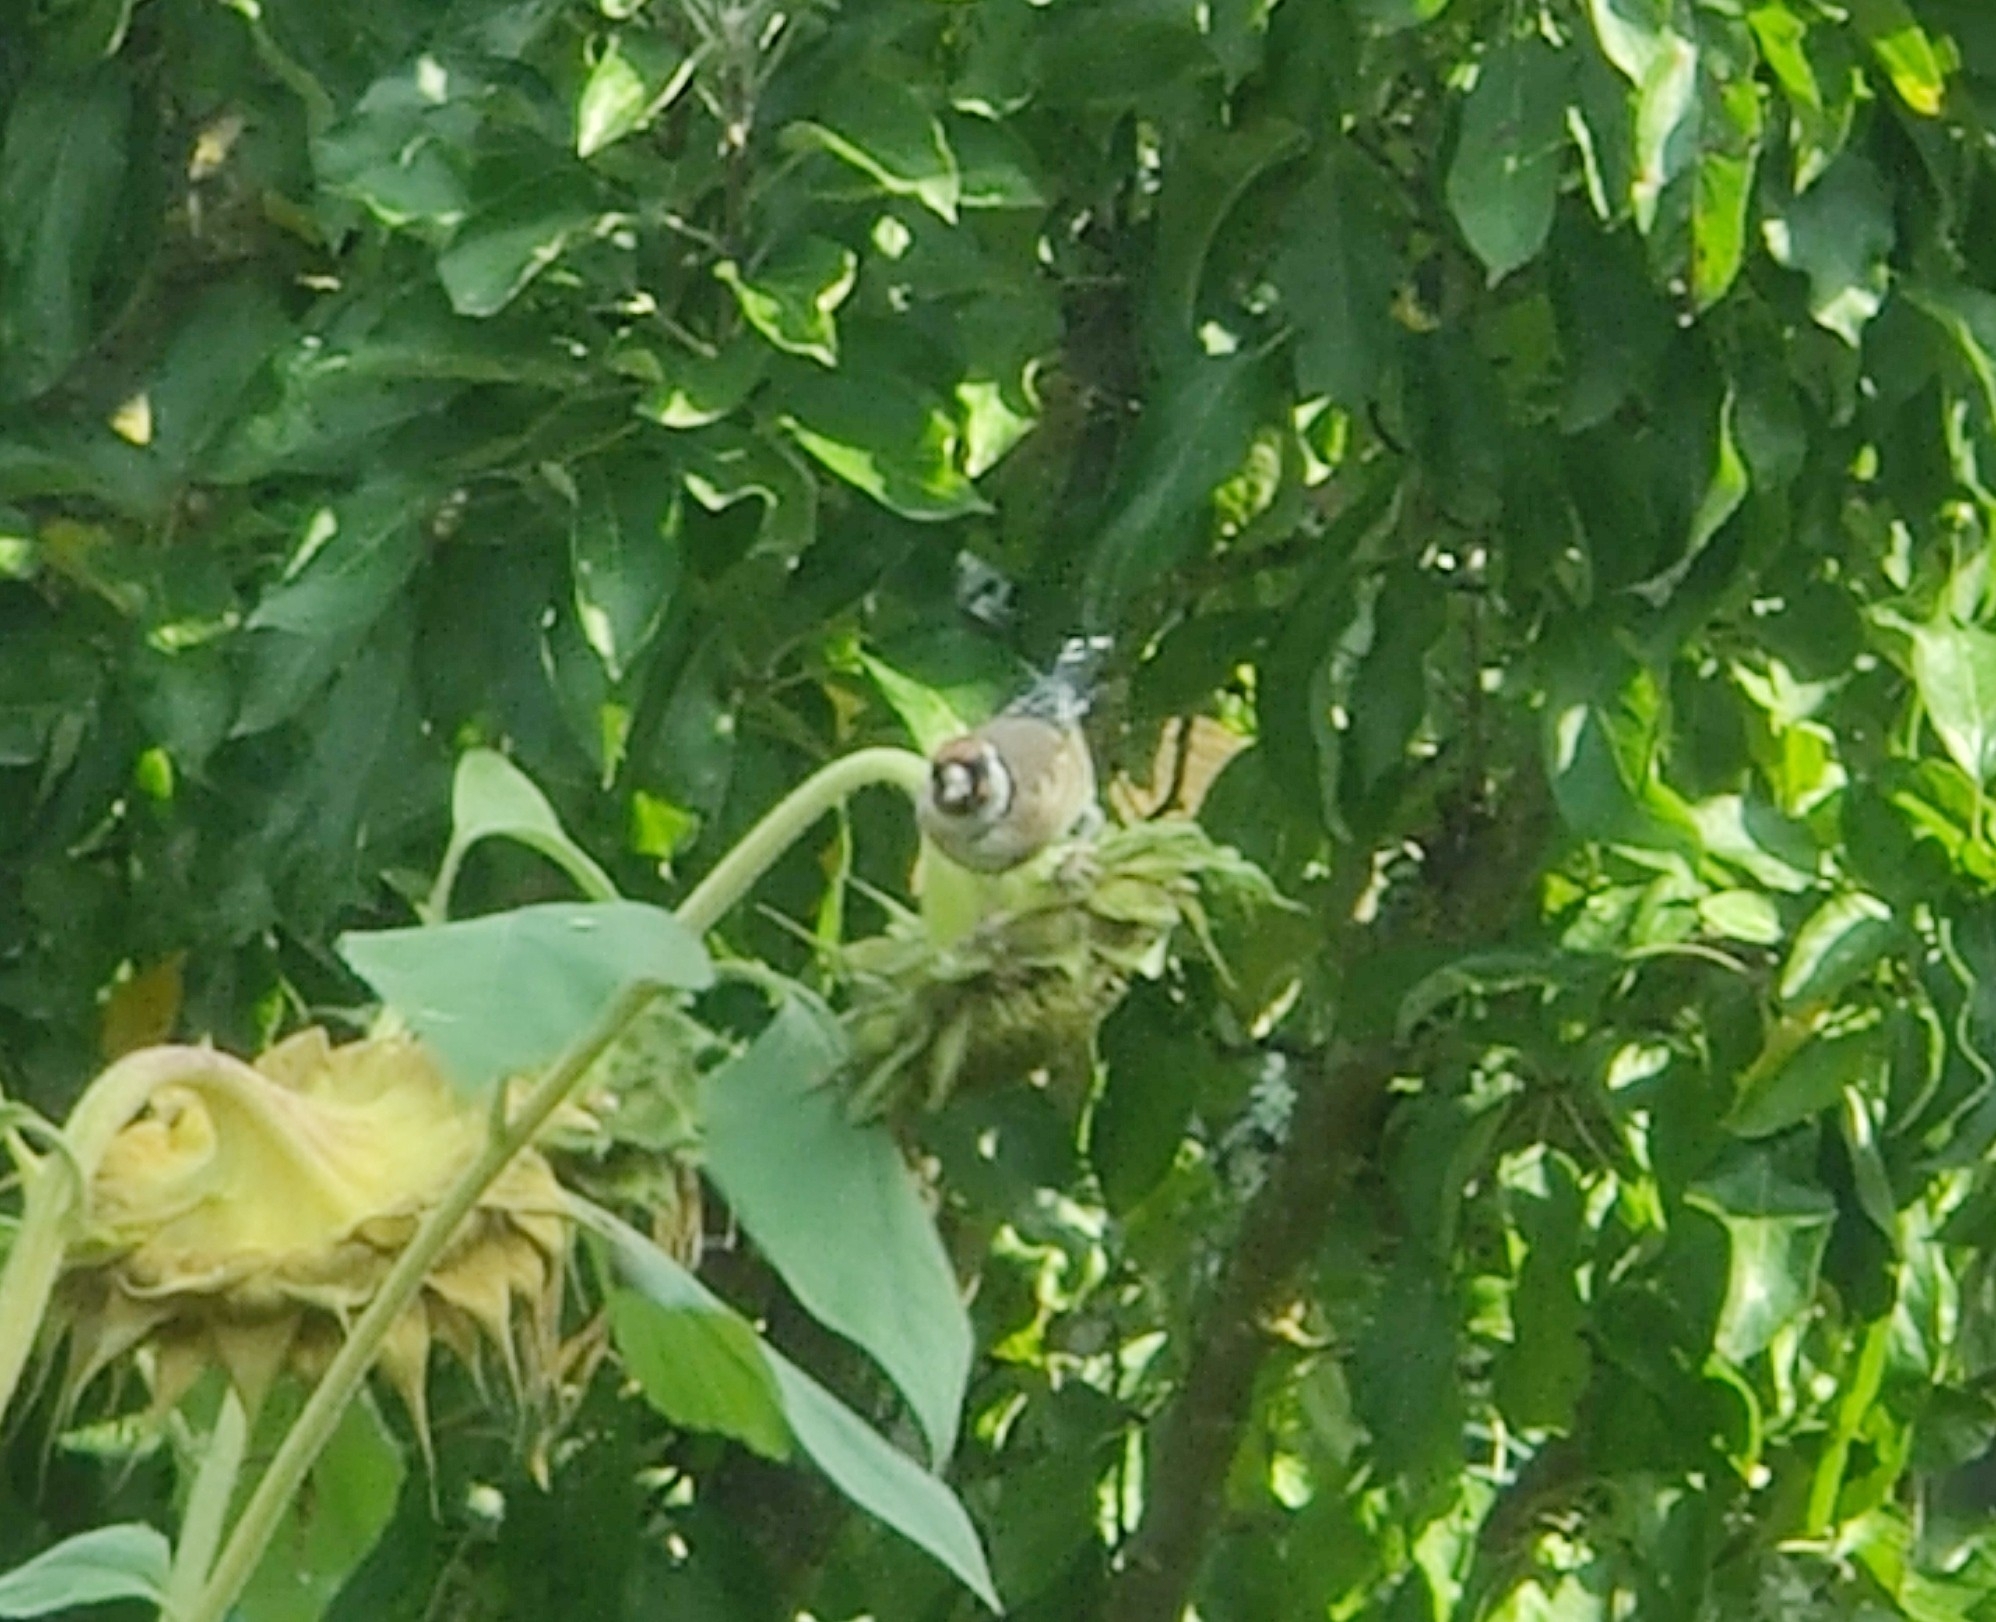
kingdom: Animalia
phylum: Chordata
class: Aves
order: Passeriformes
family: Fringillidae
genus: Carduelis
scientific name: Carduelis carduelis
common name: European goldfinch
